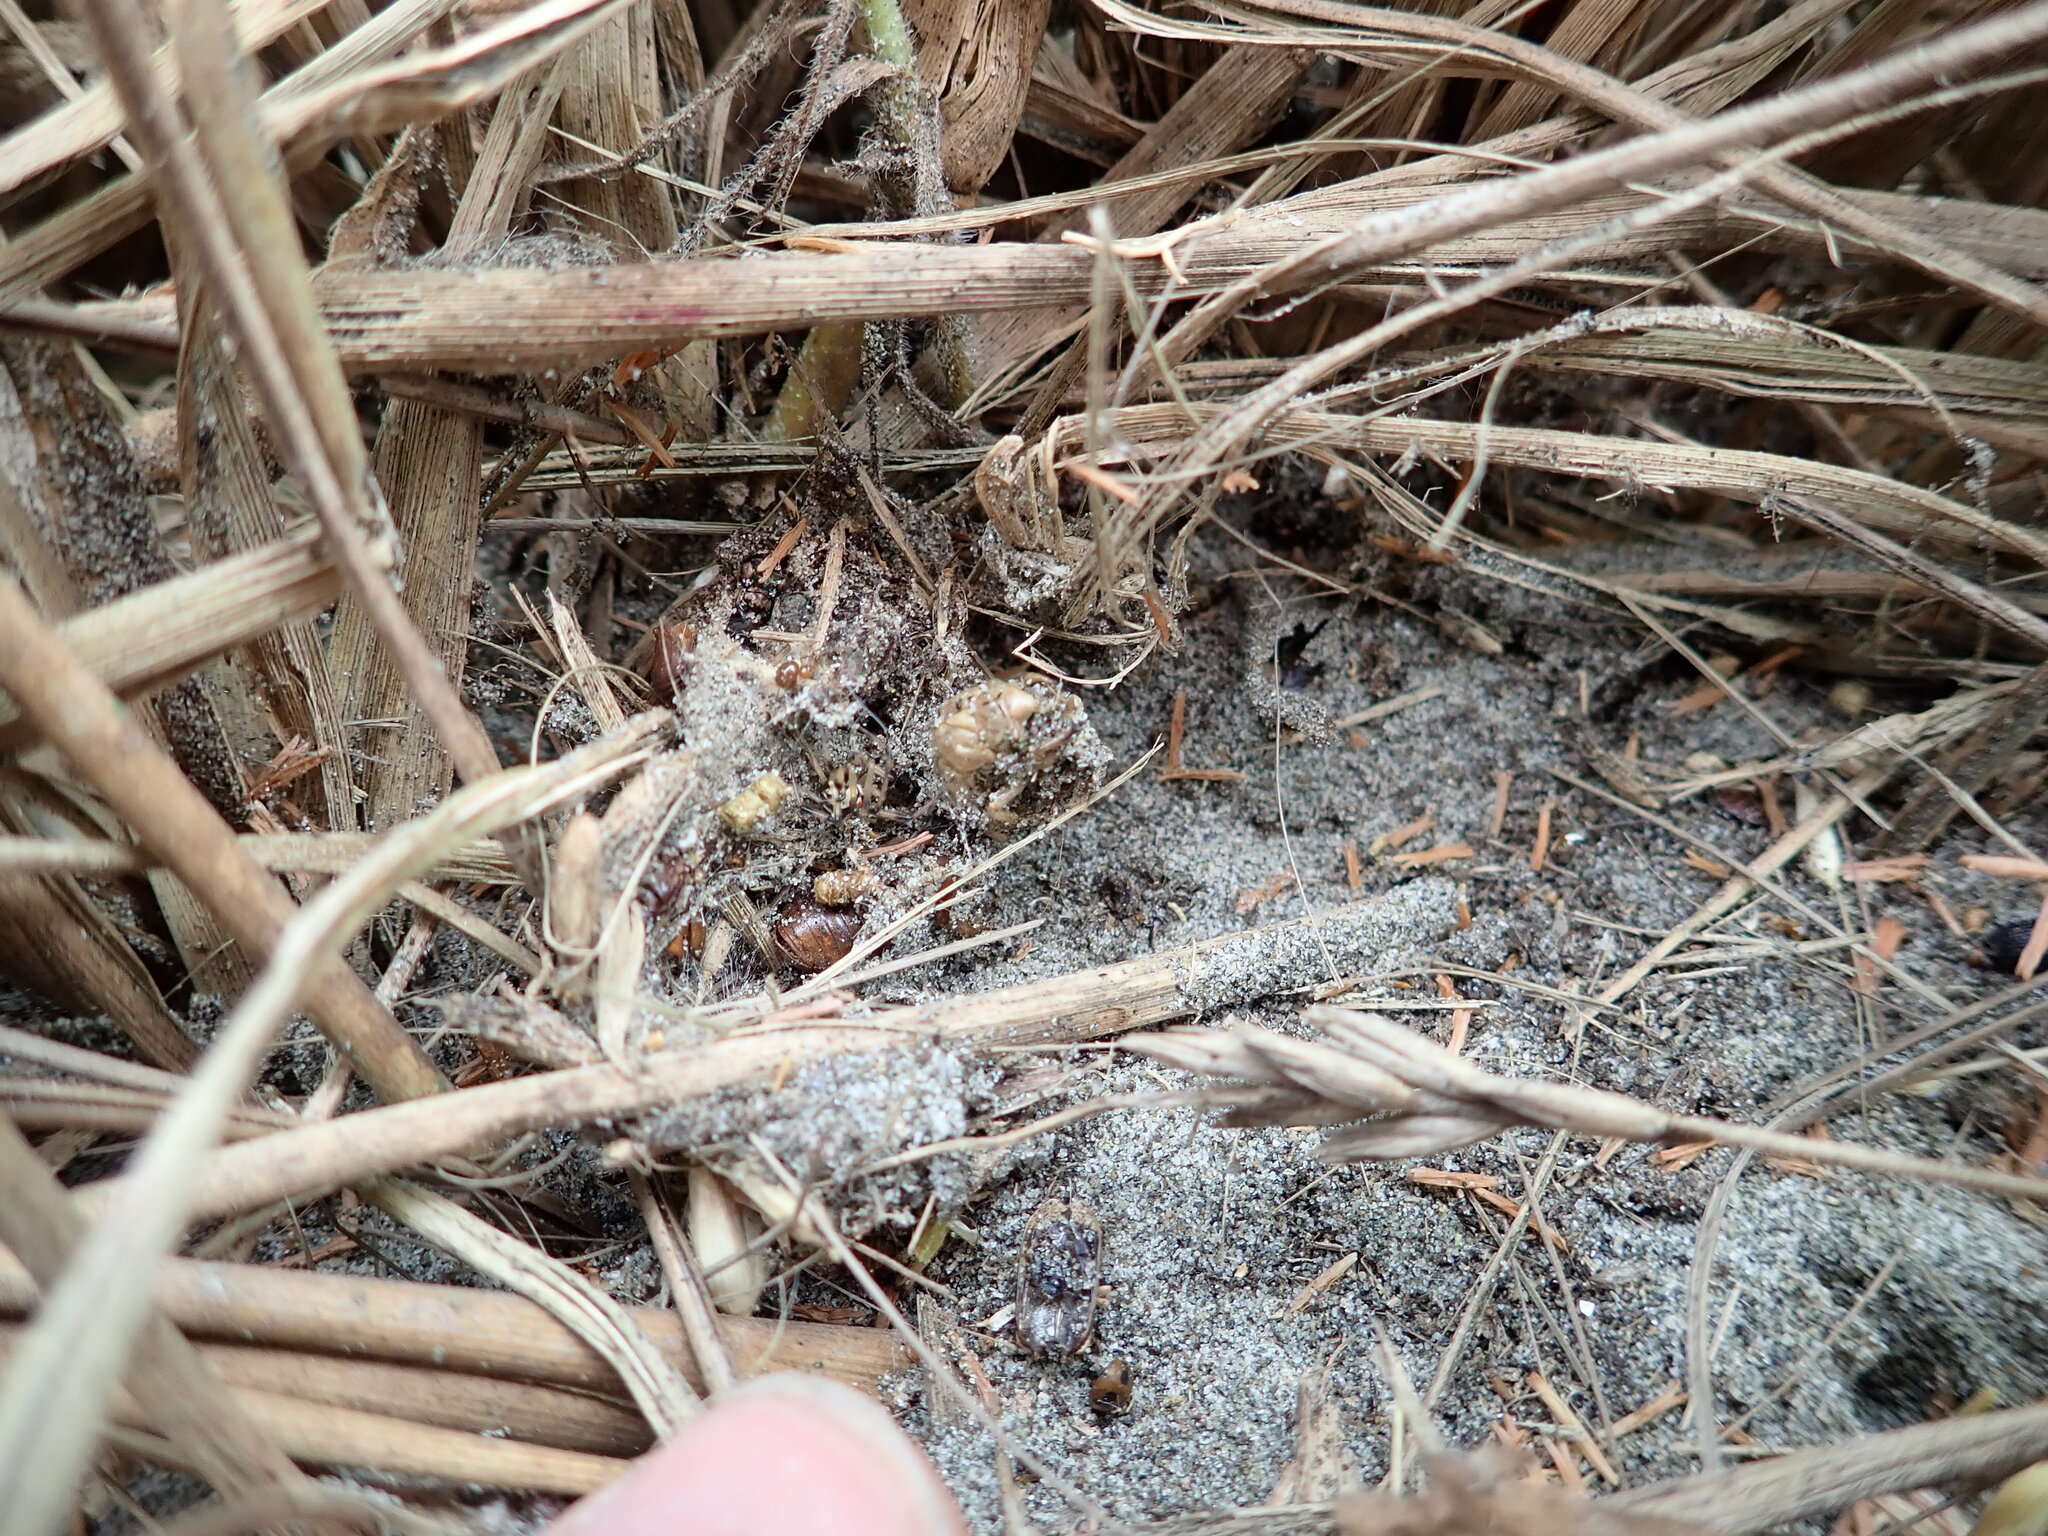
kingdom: Animalia
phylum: Arthropoda
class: Arachnida
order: Araneae
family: Theridiidae
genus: Latrodectus
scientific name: Latrodectus katipo
